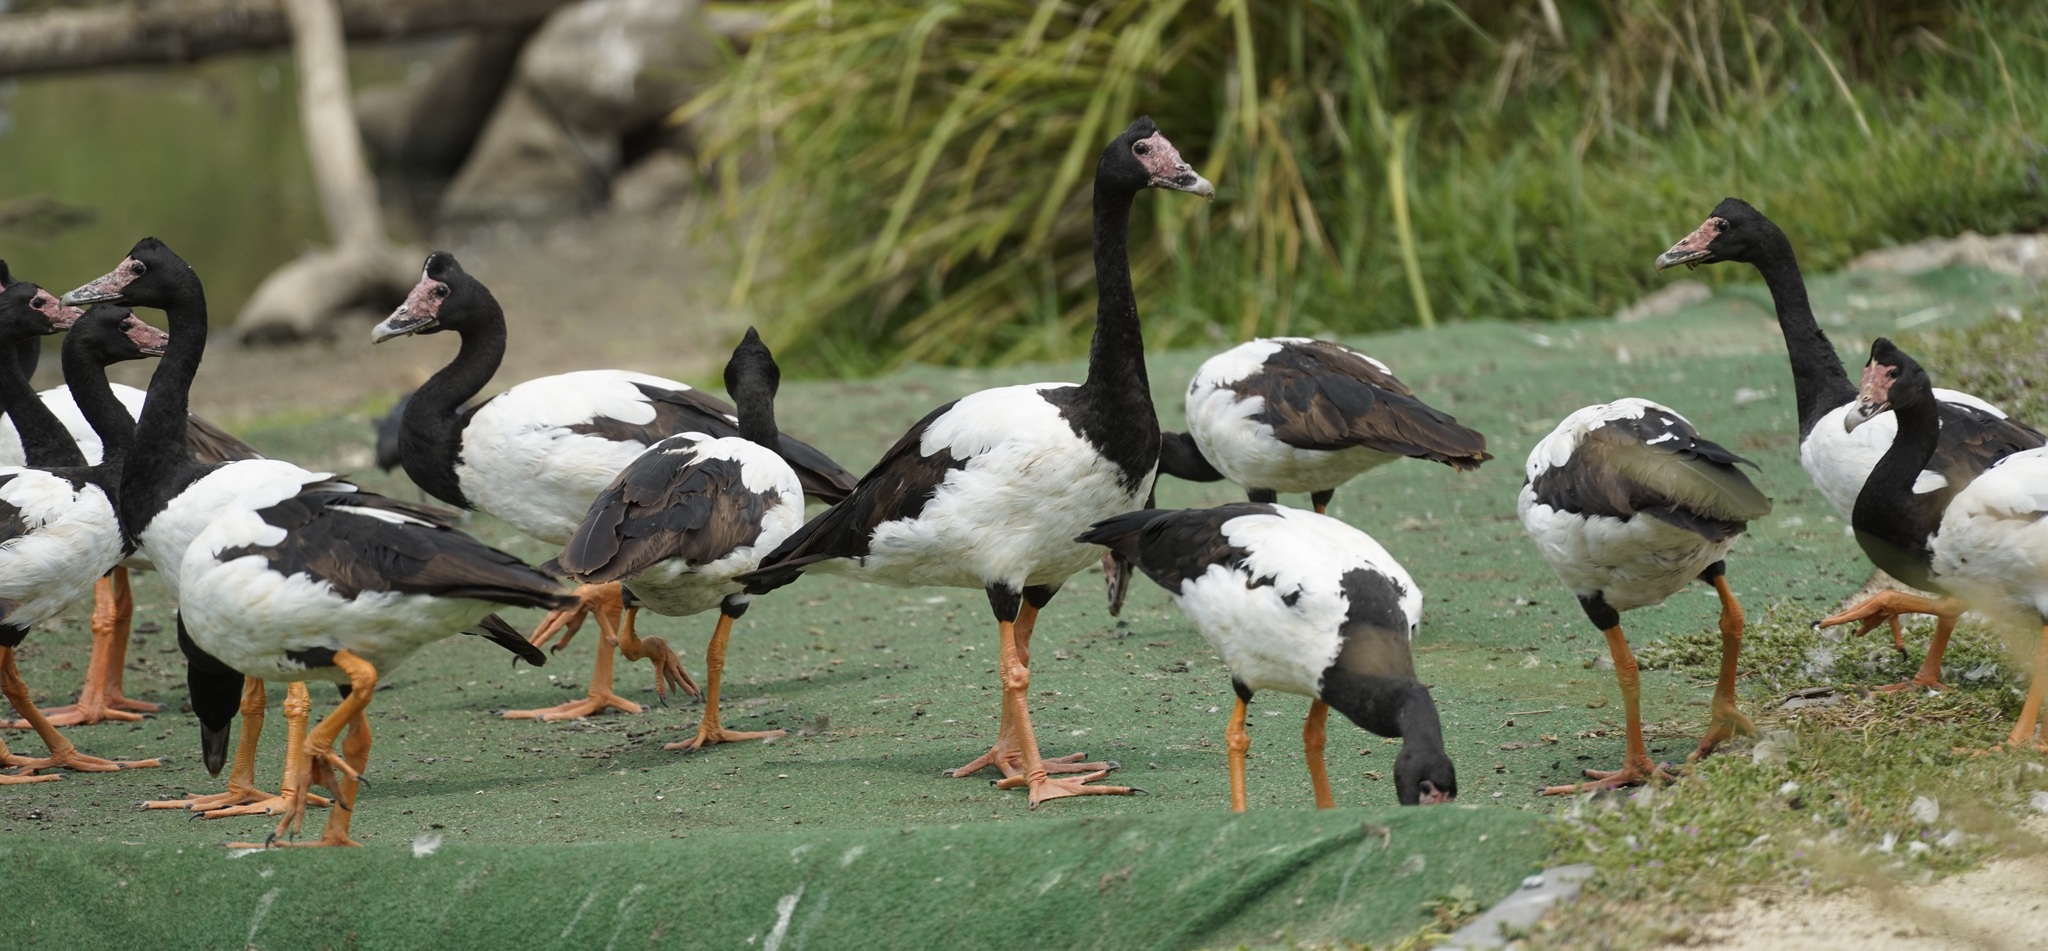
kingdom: Animalia
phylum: Chordata
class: Aves
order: Anseriformes
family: Anseranatidae
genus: Anseranas
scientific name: Anseranas semipalmata
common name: Magpie goose
